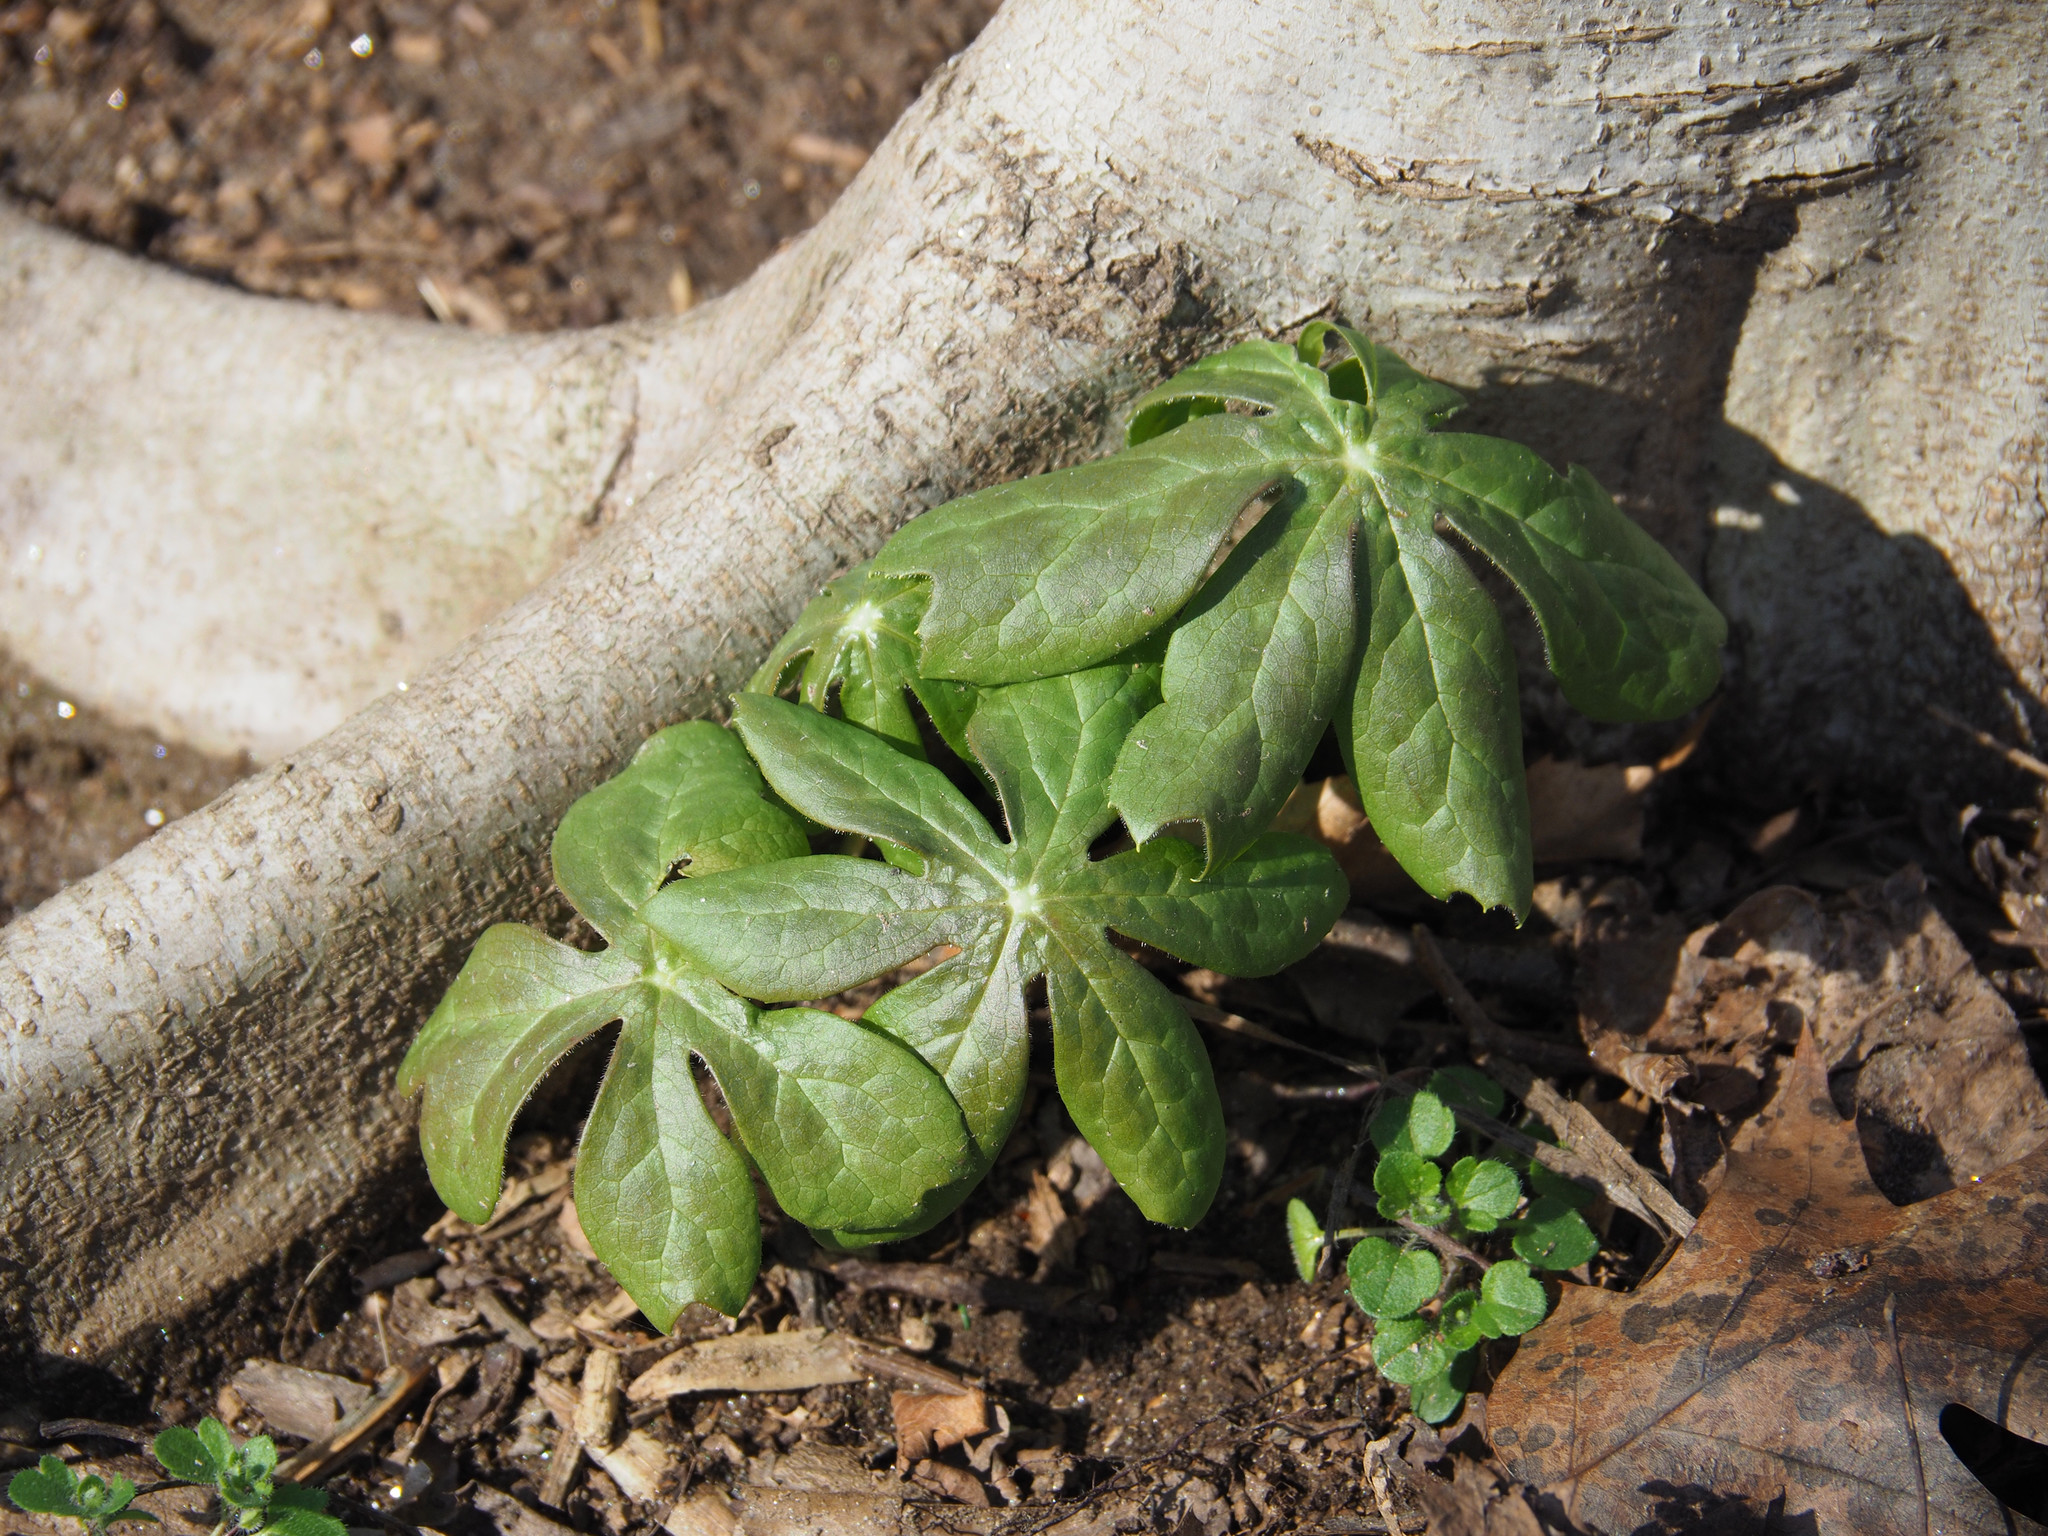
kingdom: Plantae
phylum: Tracheophyta
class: Magnoliopsida
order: Ranunculales
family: Berberidaceae
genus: Podophyllum
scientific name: Podophyllum peltatum
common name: Wild mandrake
